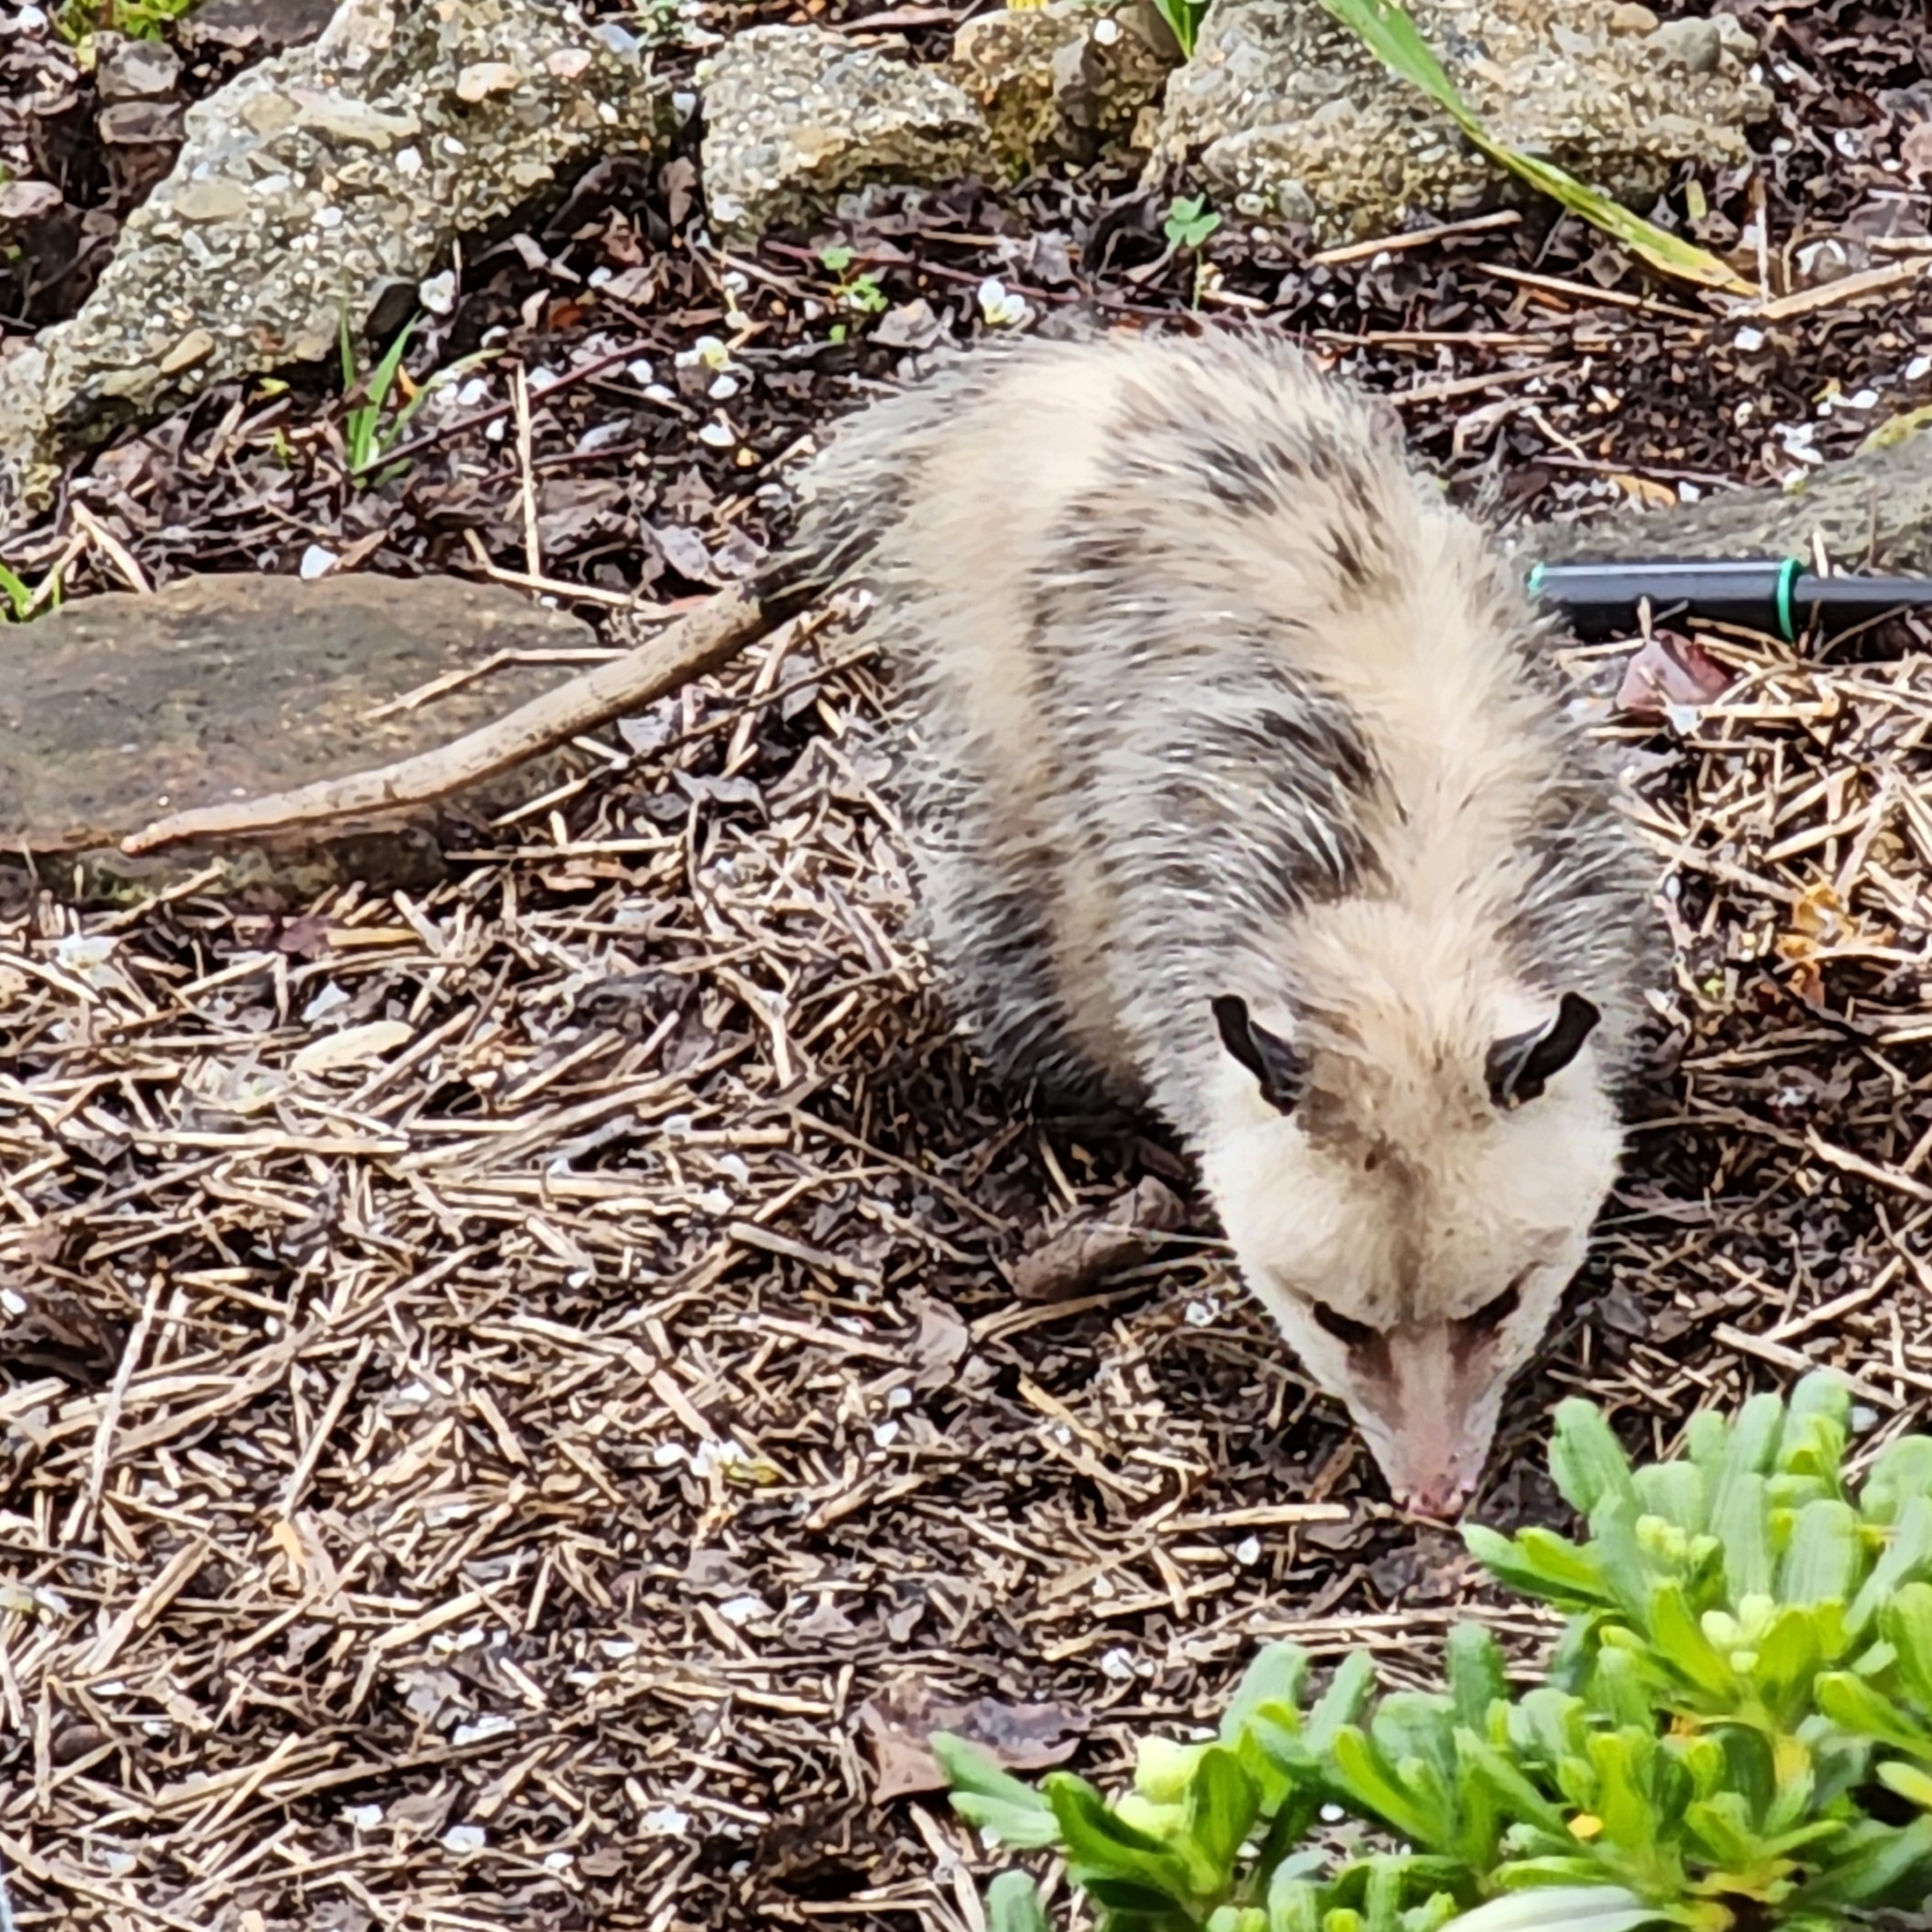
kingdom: Animalia
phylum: Chordata
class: Mammalia
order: Didelphimorphia
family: Didelphidae
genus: Didelphis
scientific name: Didelphis virginiana
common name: Virginia opossum
